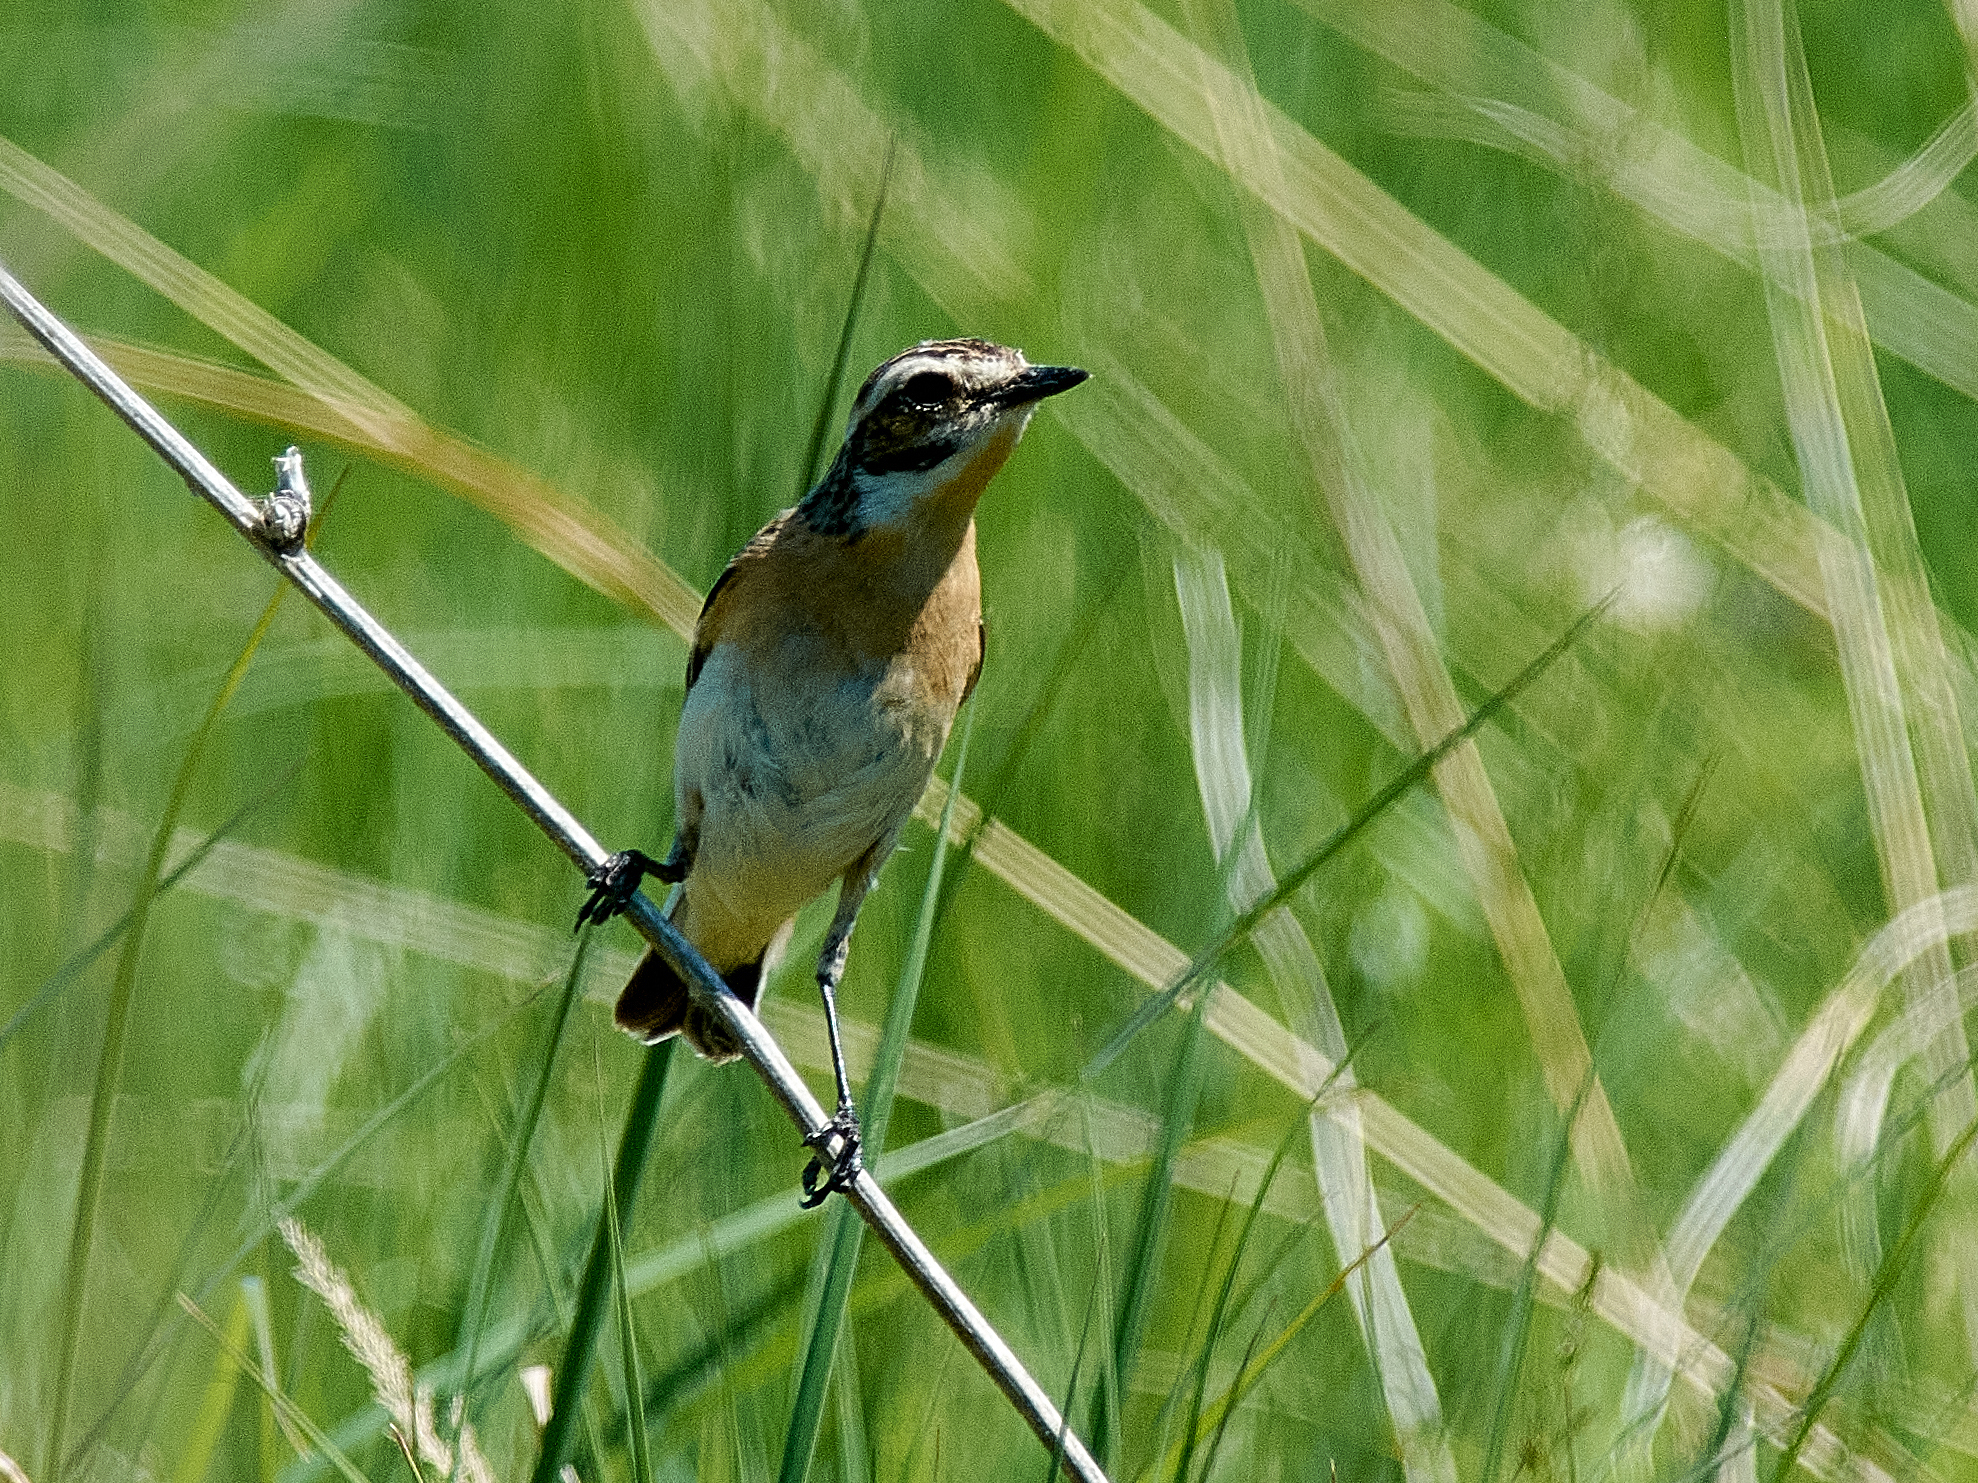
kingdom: Animalia
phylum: Chordata
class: Aves
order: Passeriformes
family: Muscicapidae
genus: Saxicola
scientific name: Saxicola rubetra
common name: Whinchat
